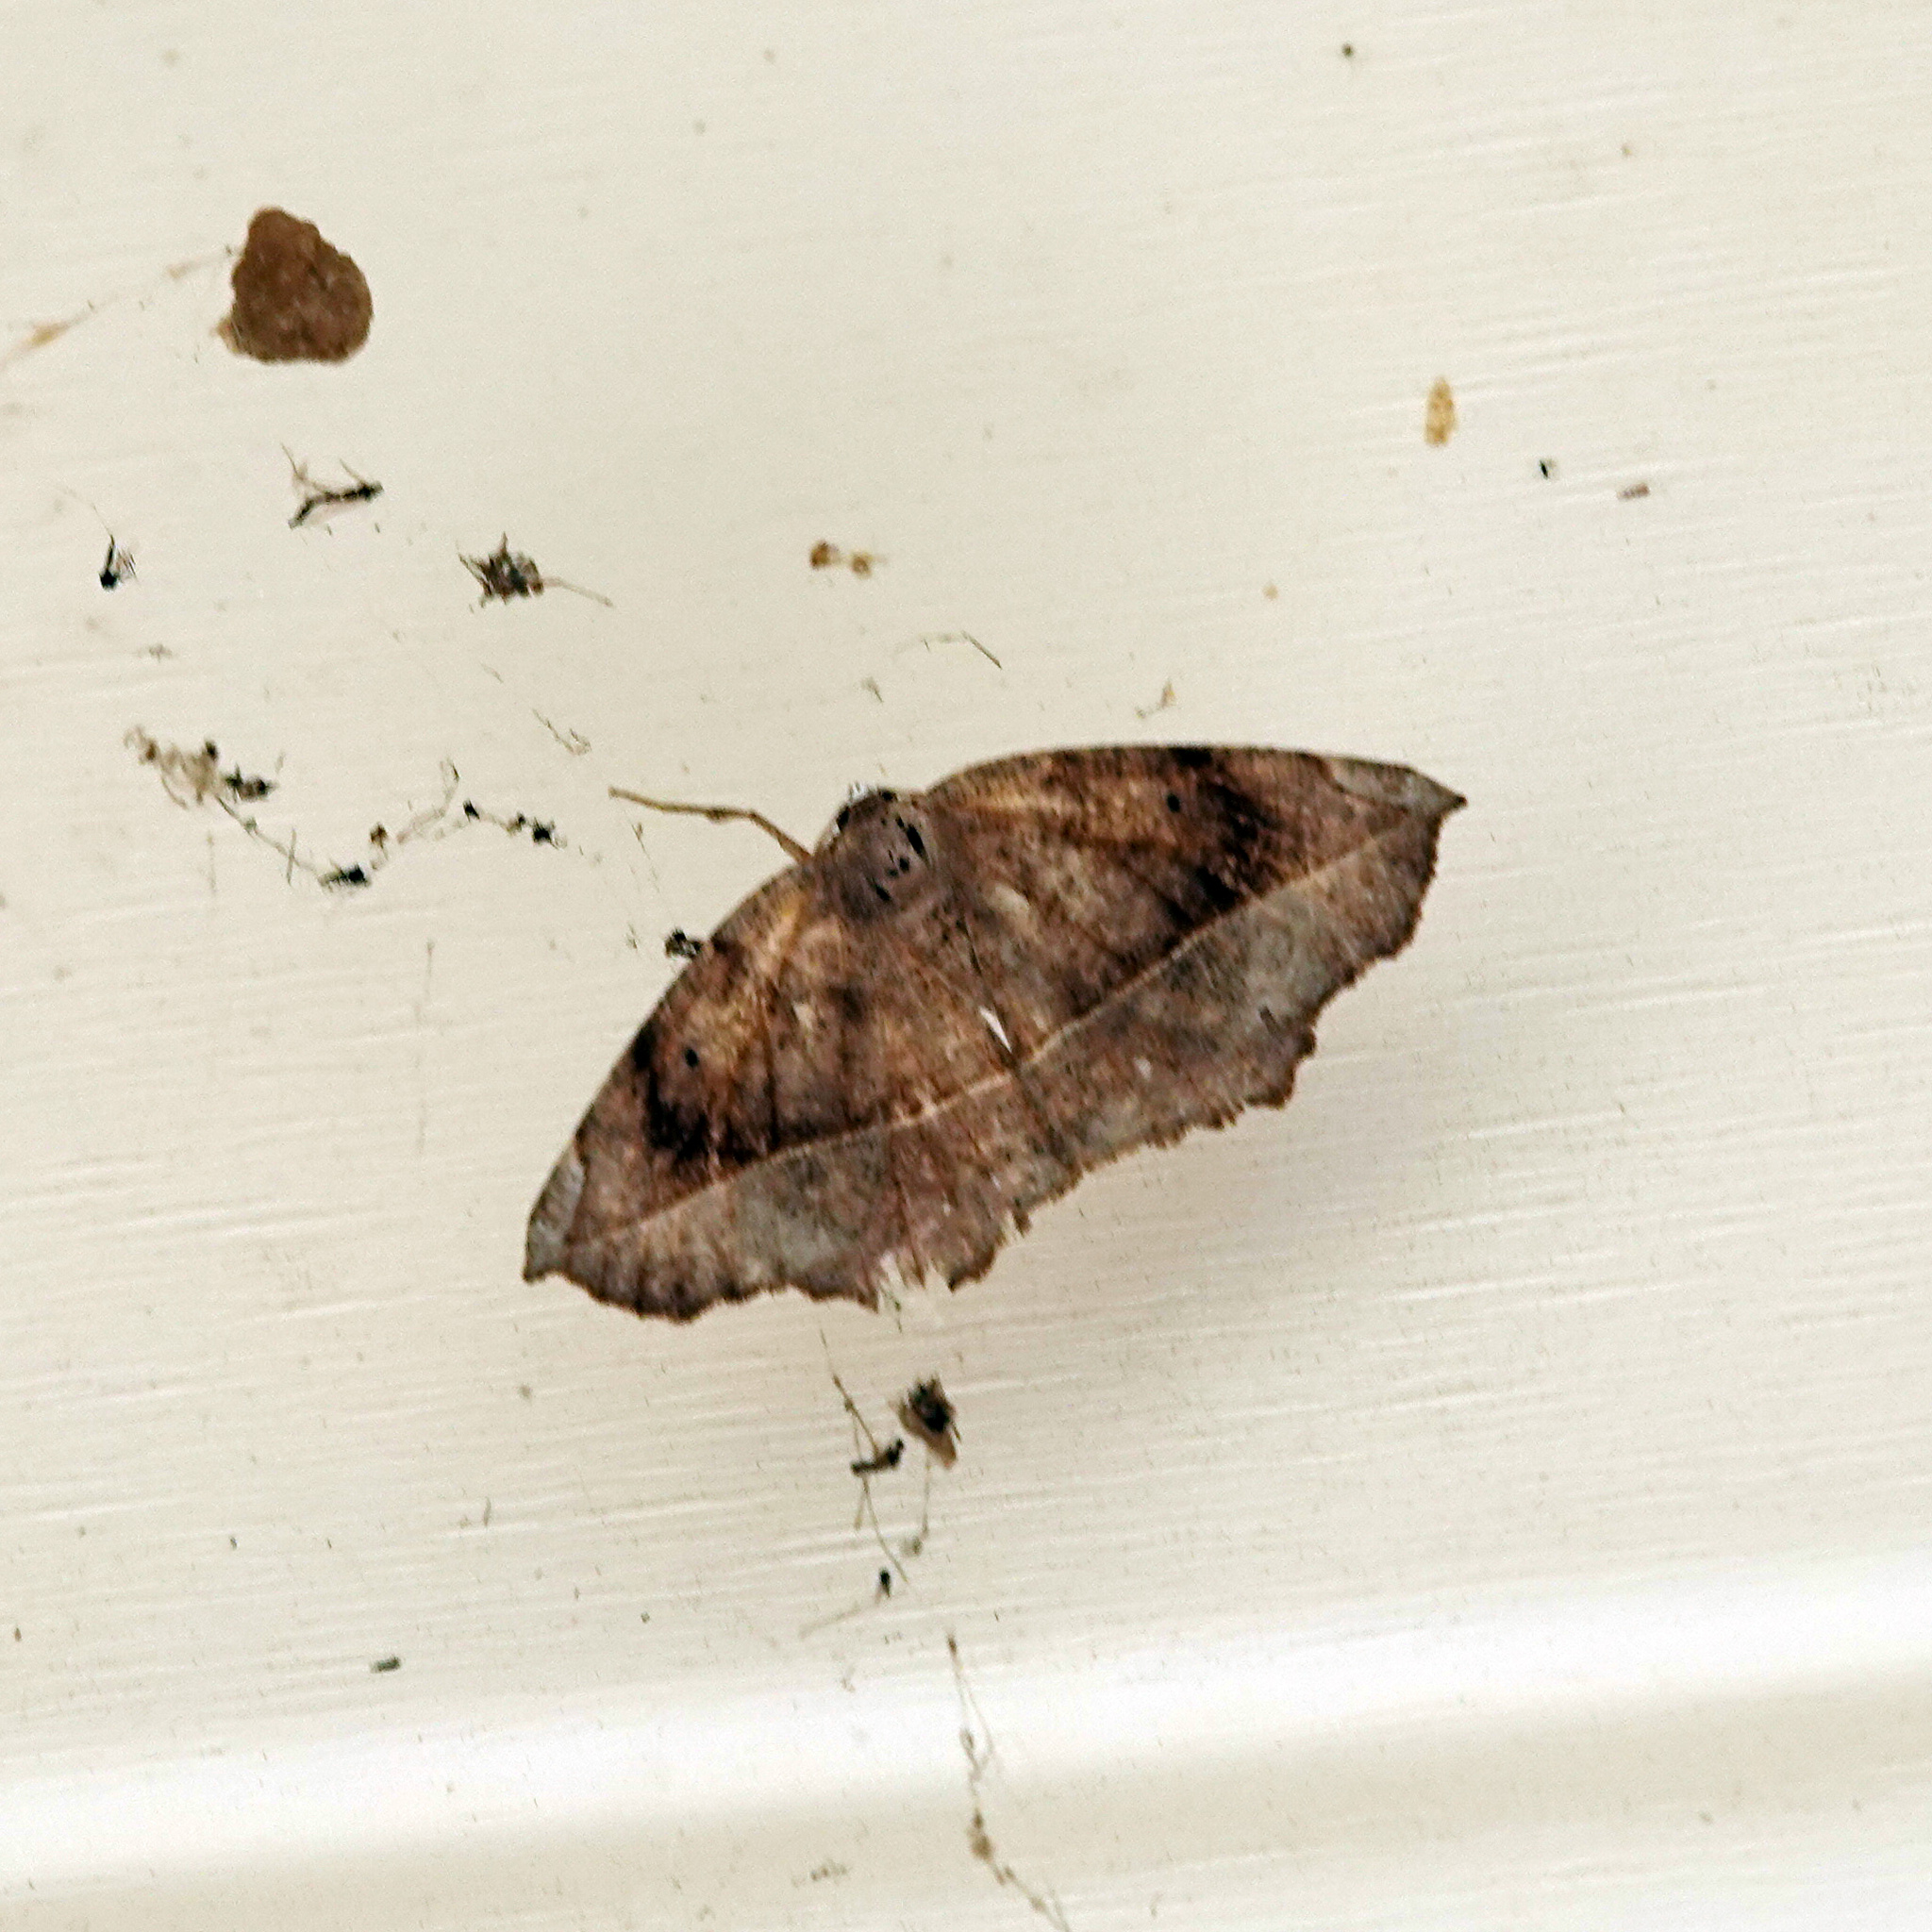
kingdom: Animalia
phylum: Arthropoda
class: Insecta
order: Lepidoptera
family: Geometridae
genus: Eutrapela
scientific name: Eutrapela clemataria
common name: Curved-toothed geometer
